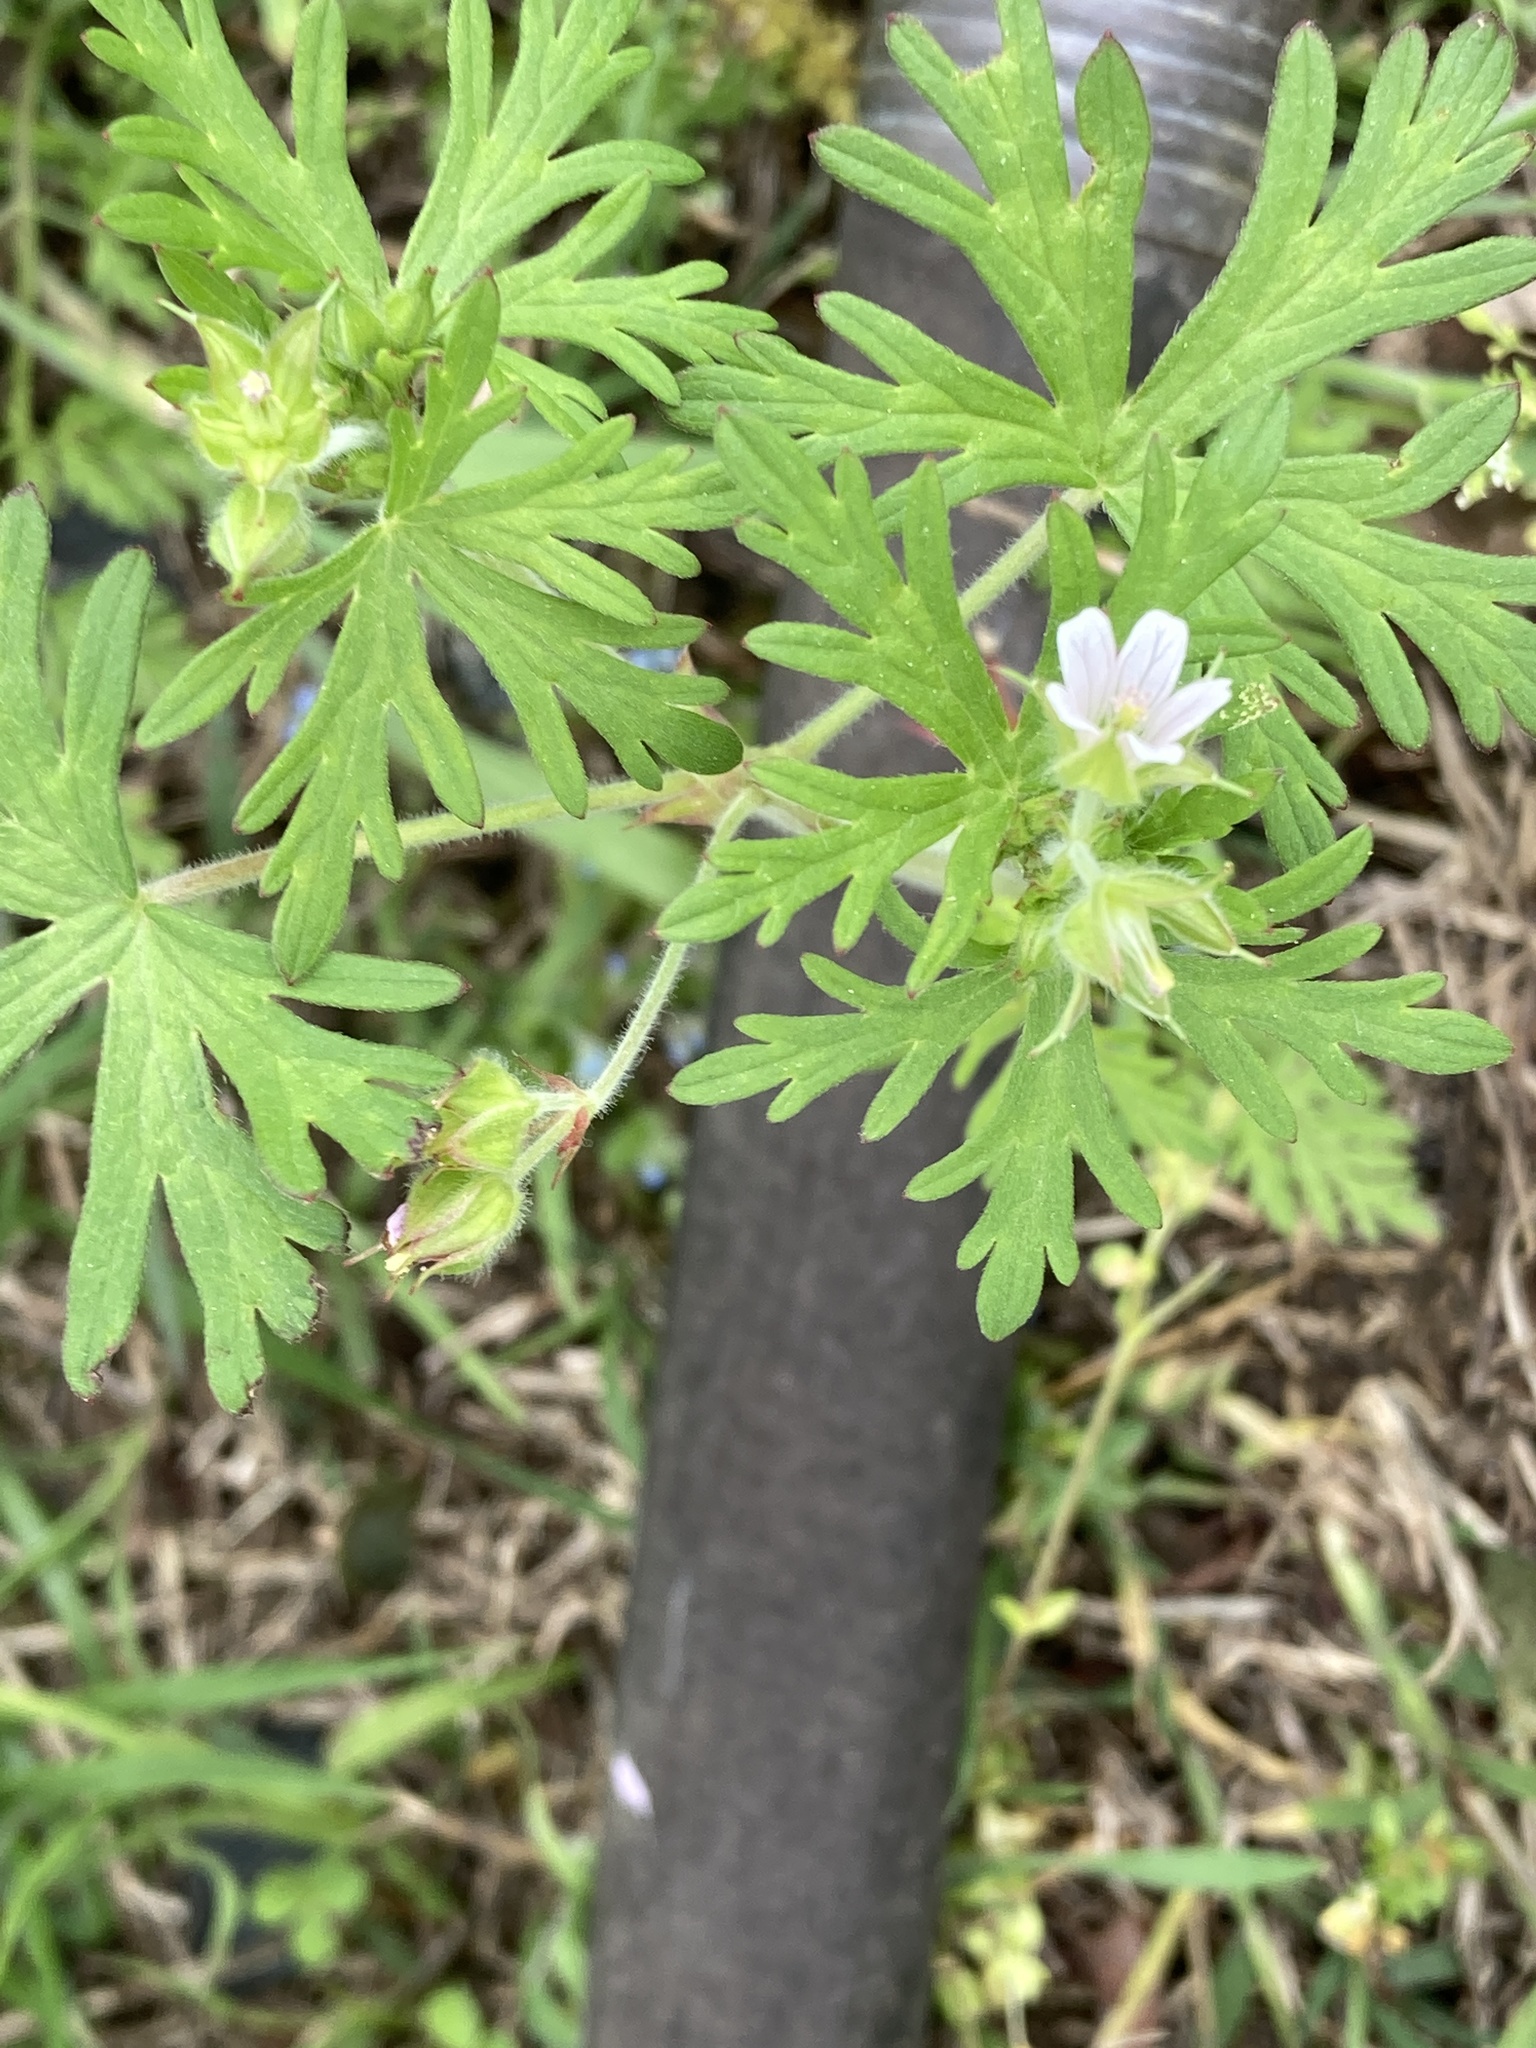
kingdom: Plantae
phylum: Tracheophyta
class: Magnoliopsida
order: Geraniales
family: Geraniaceae
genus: Geranium
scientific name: Geranium carolinianum
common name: Carolina crane's-bill
